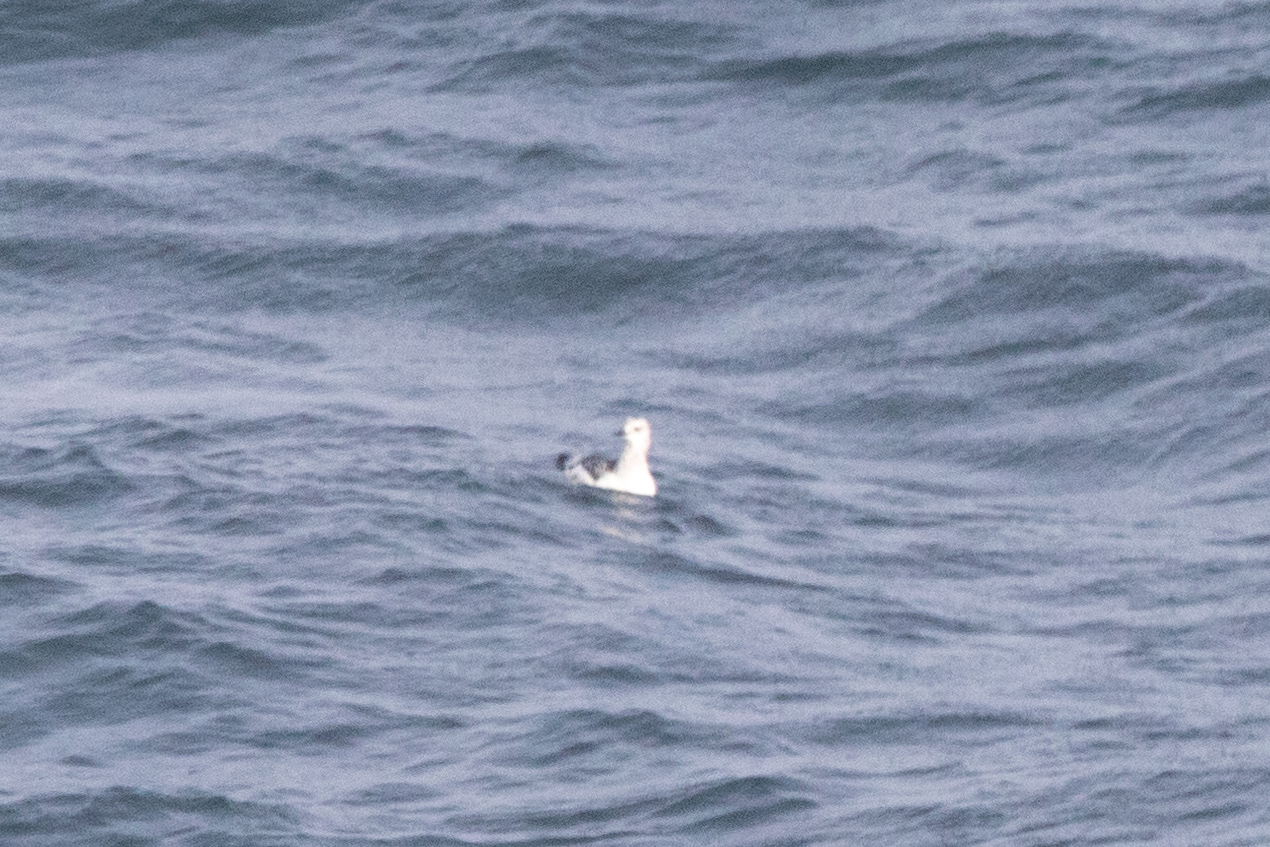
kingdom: Animalia
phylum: Chordata
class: Aves
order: Charadriiformes
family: Alcidae
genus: Cepphus
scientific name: Cepphus grylle
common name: Black guillemot
